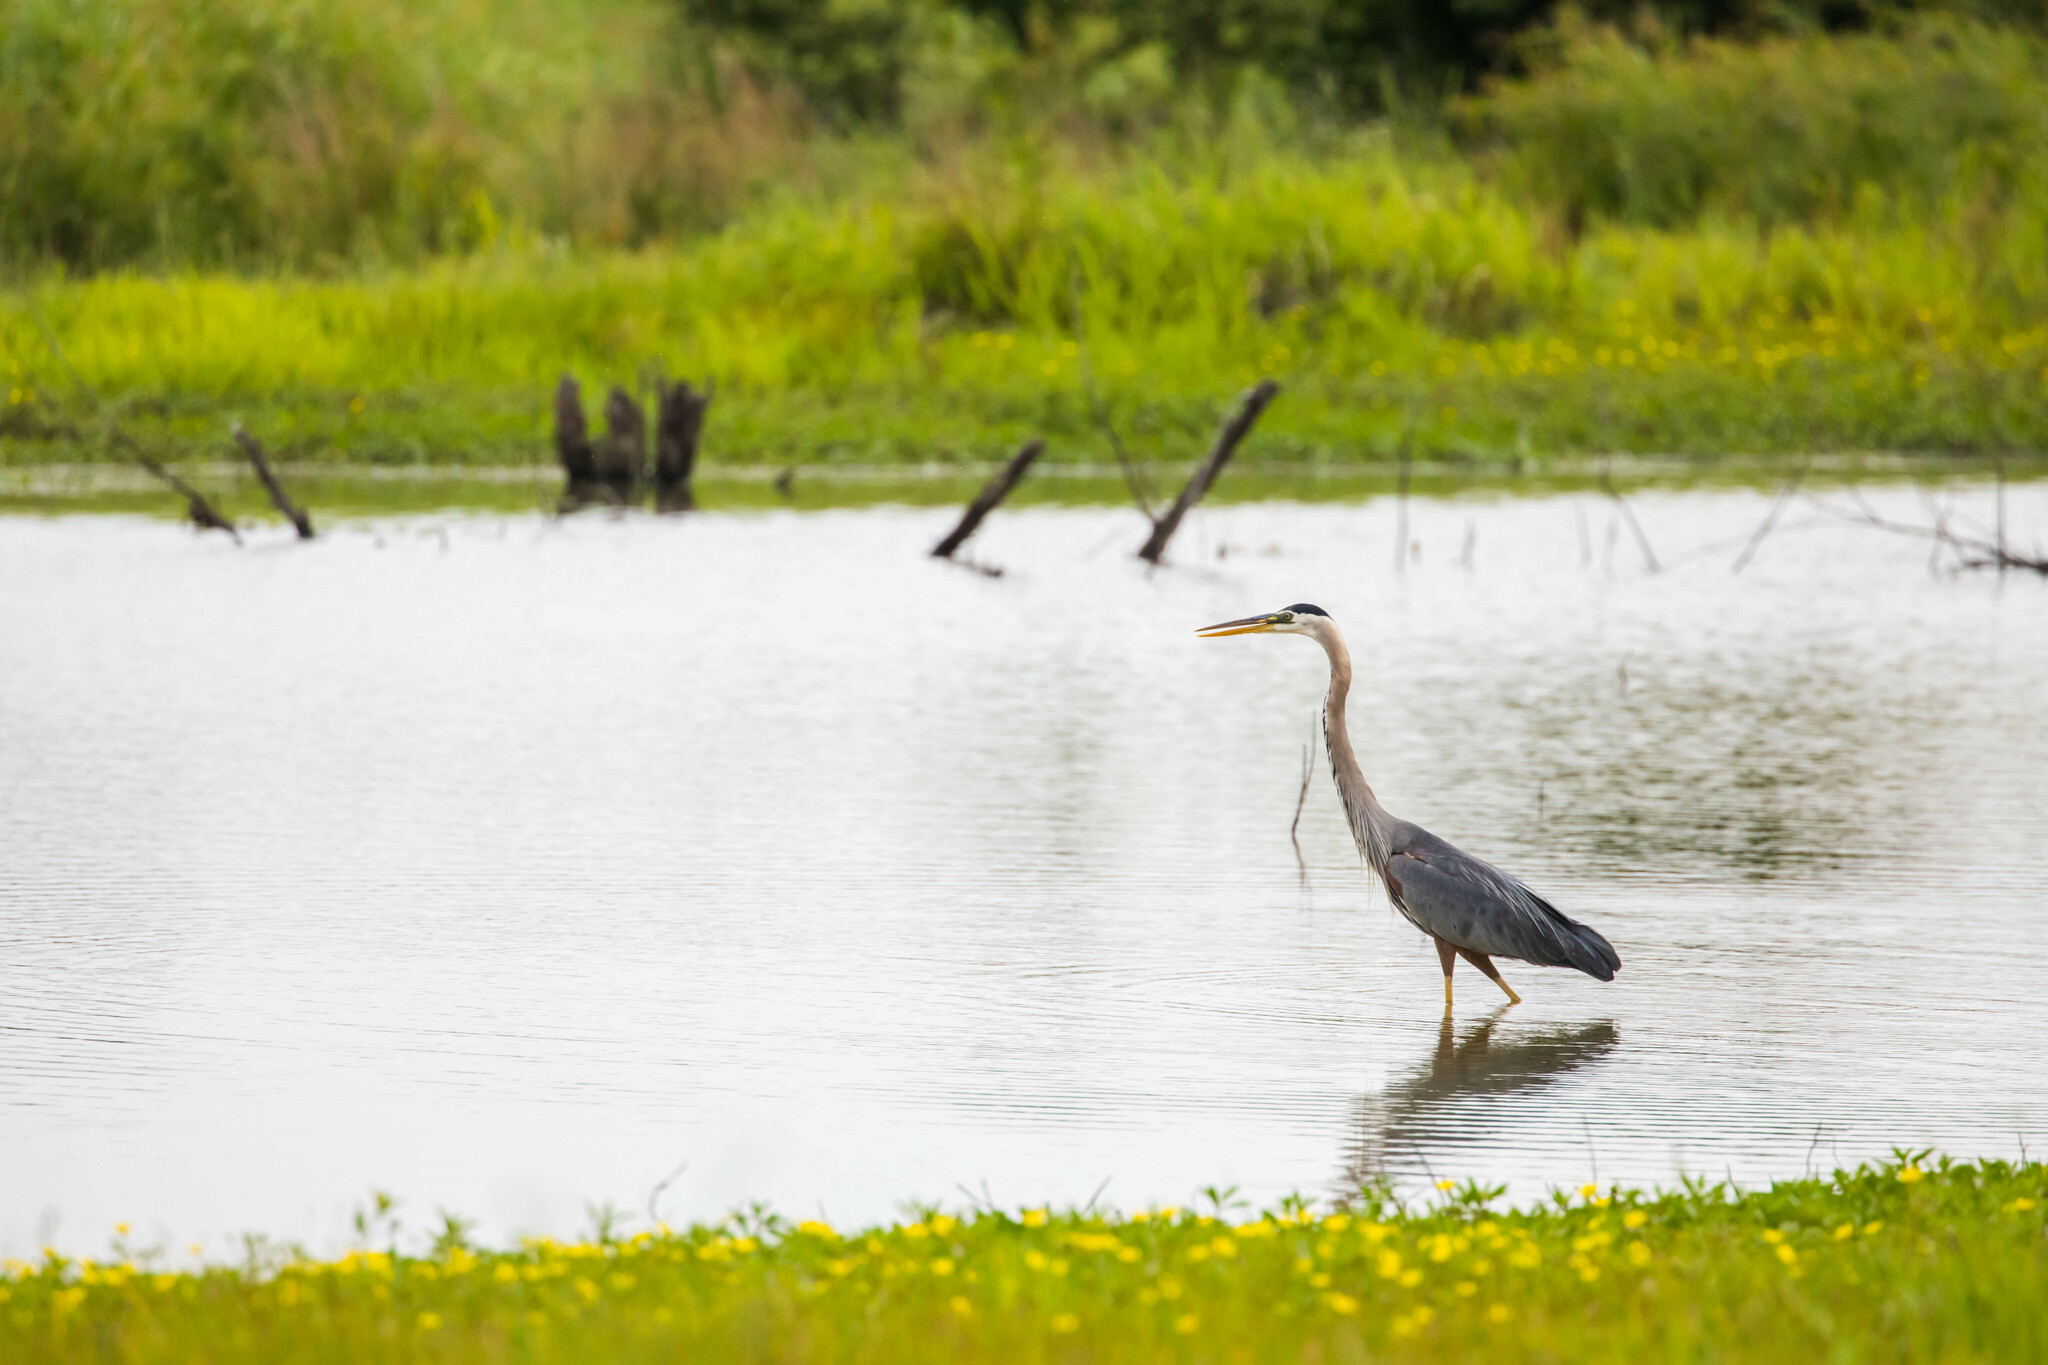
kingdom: Animalia
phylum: Chordata
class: Aves
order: Pelecaniformes
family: Ardeidae
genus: Ardea
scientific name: Ardea herodias
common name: Great blue heron
